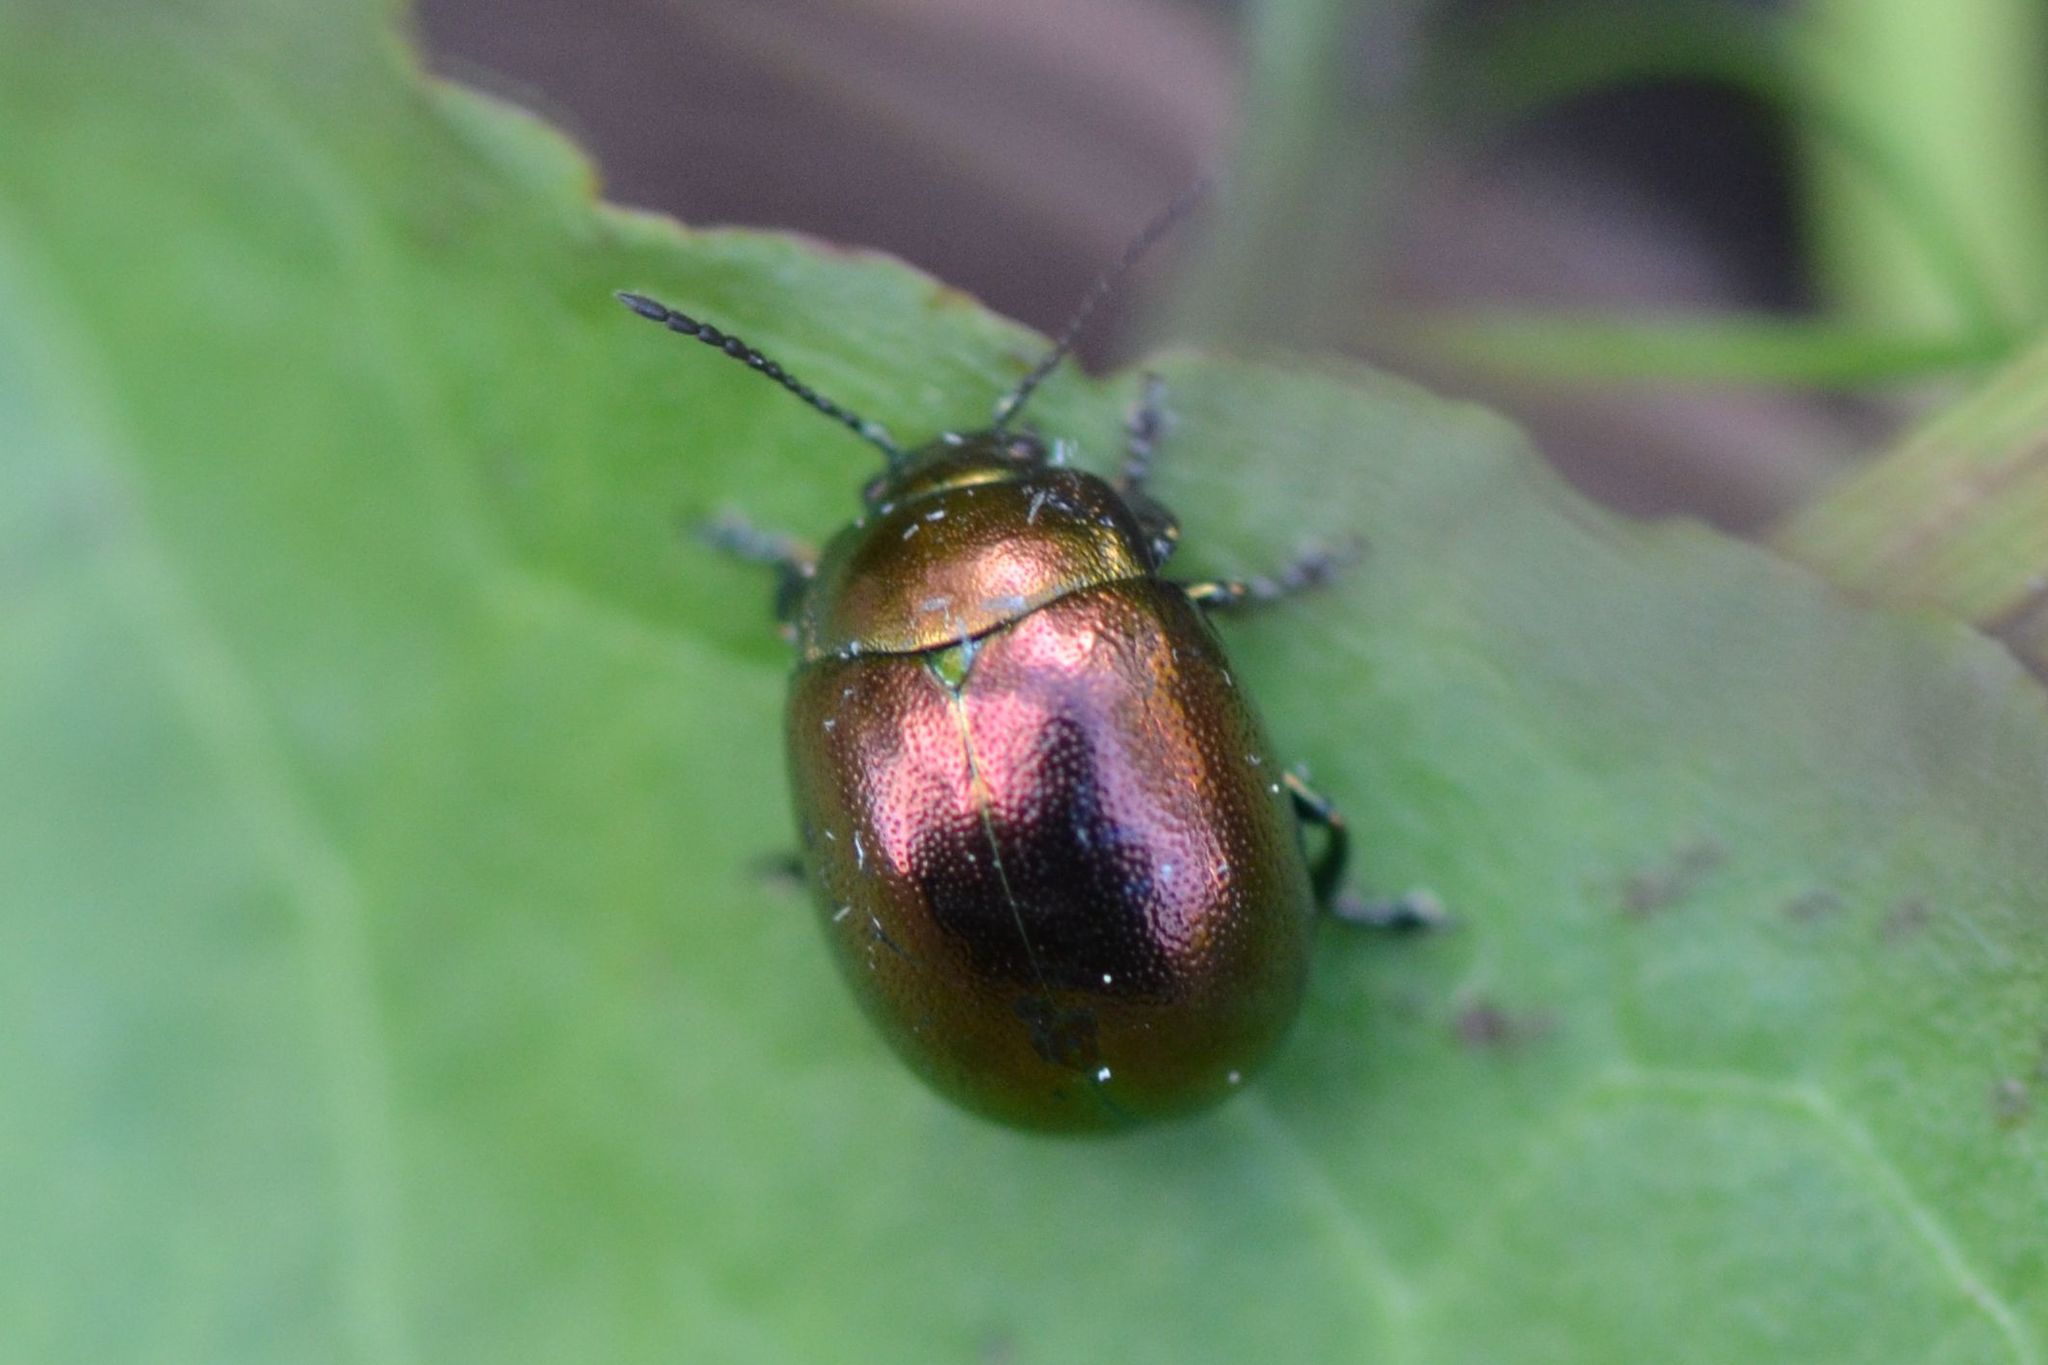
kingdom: Animalia
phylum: Arthropoda
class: Insecta
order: Coleoptera
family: Chrysomelidae
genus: Chrysolina
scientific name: Chrysolina varians
